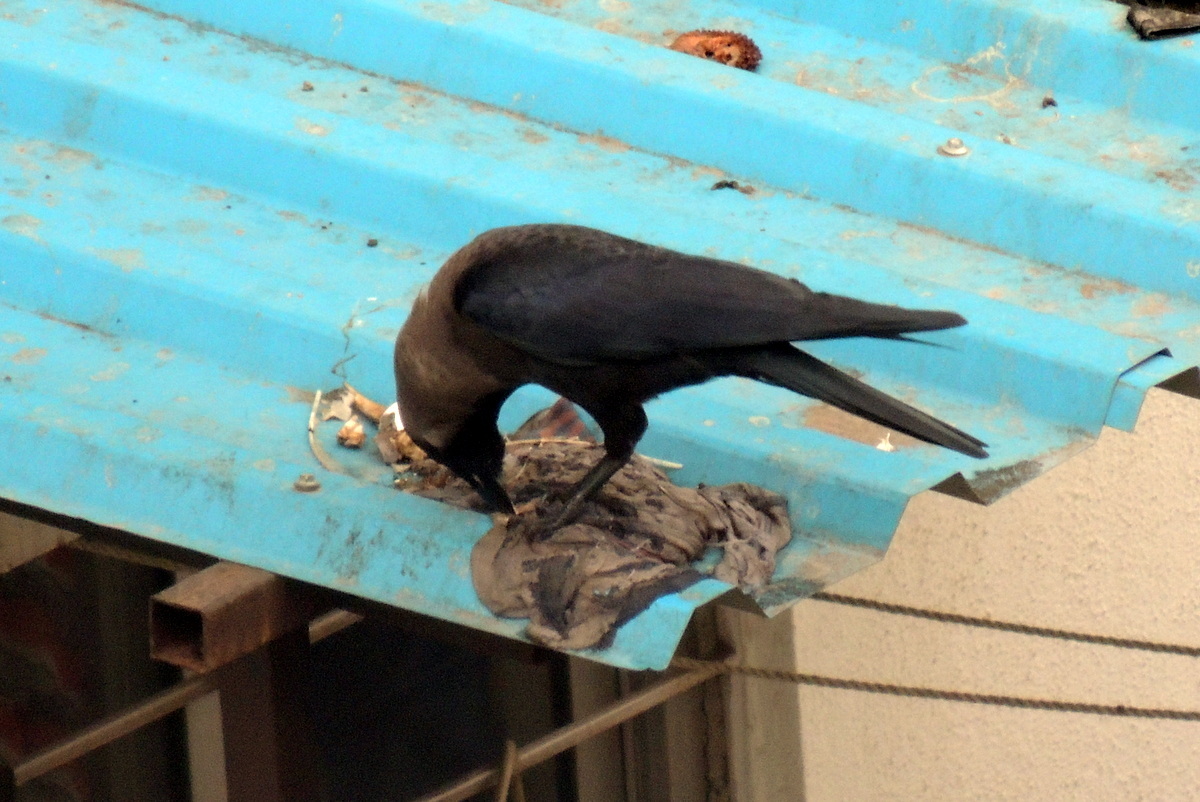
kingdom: Animalia
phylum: Chordata
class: Aves
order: Passeriformes
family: Corvidae
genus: Corvus
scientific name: Corvus splendens
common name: House crow
